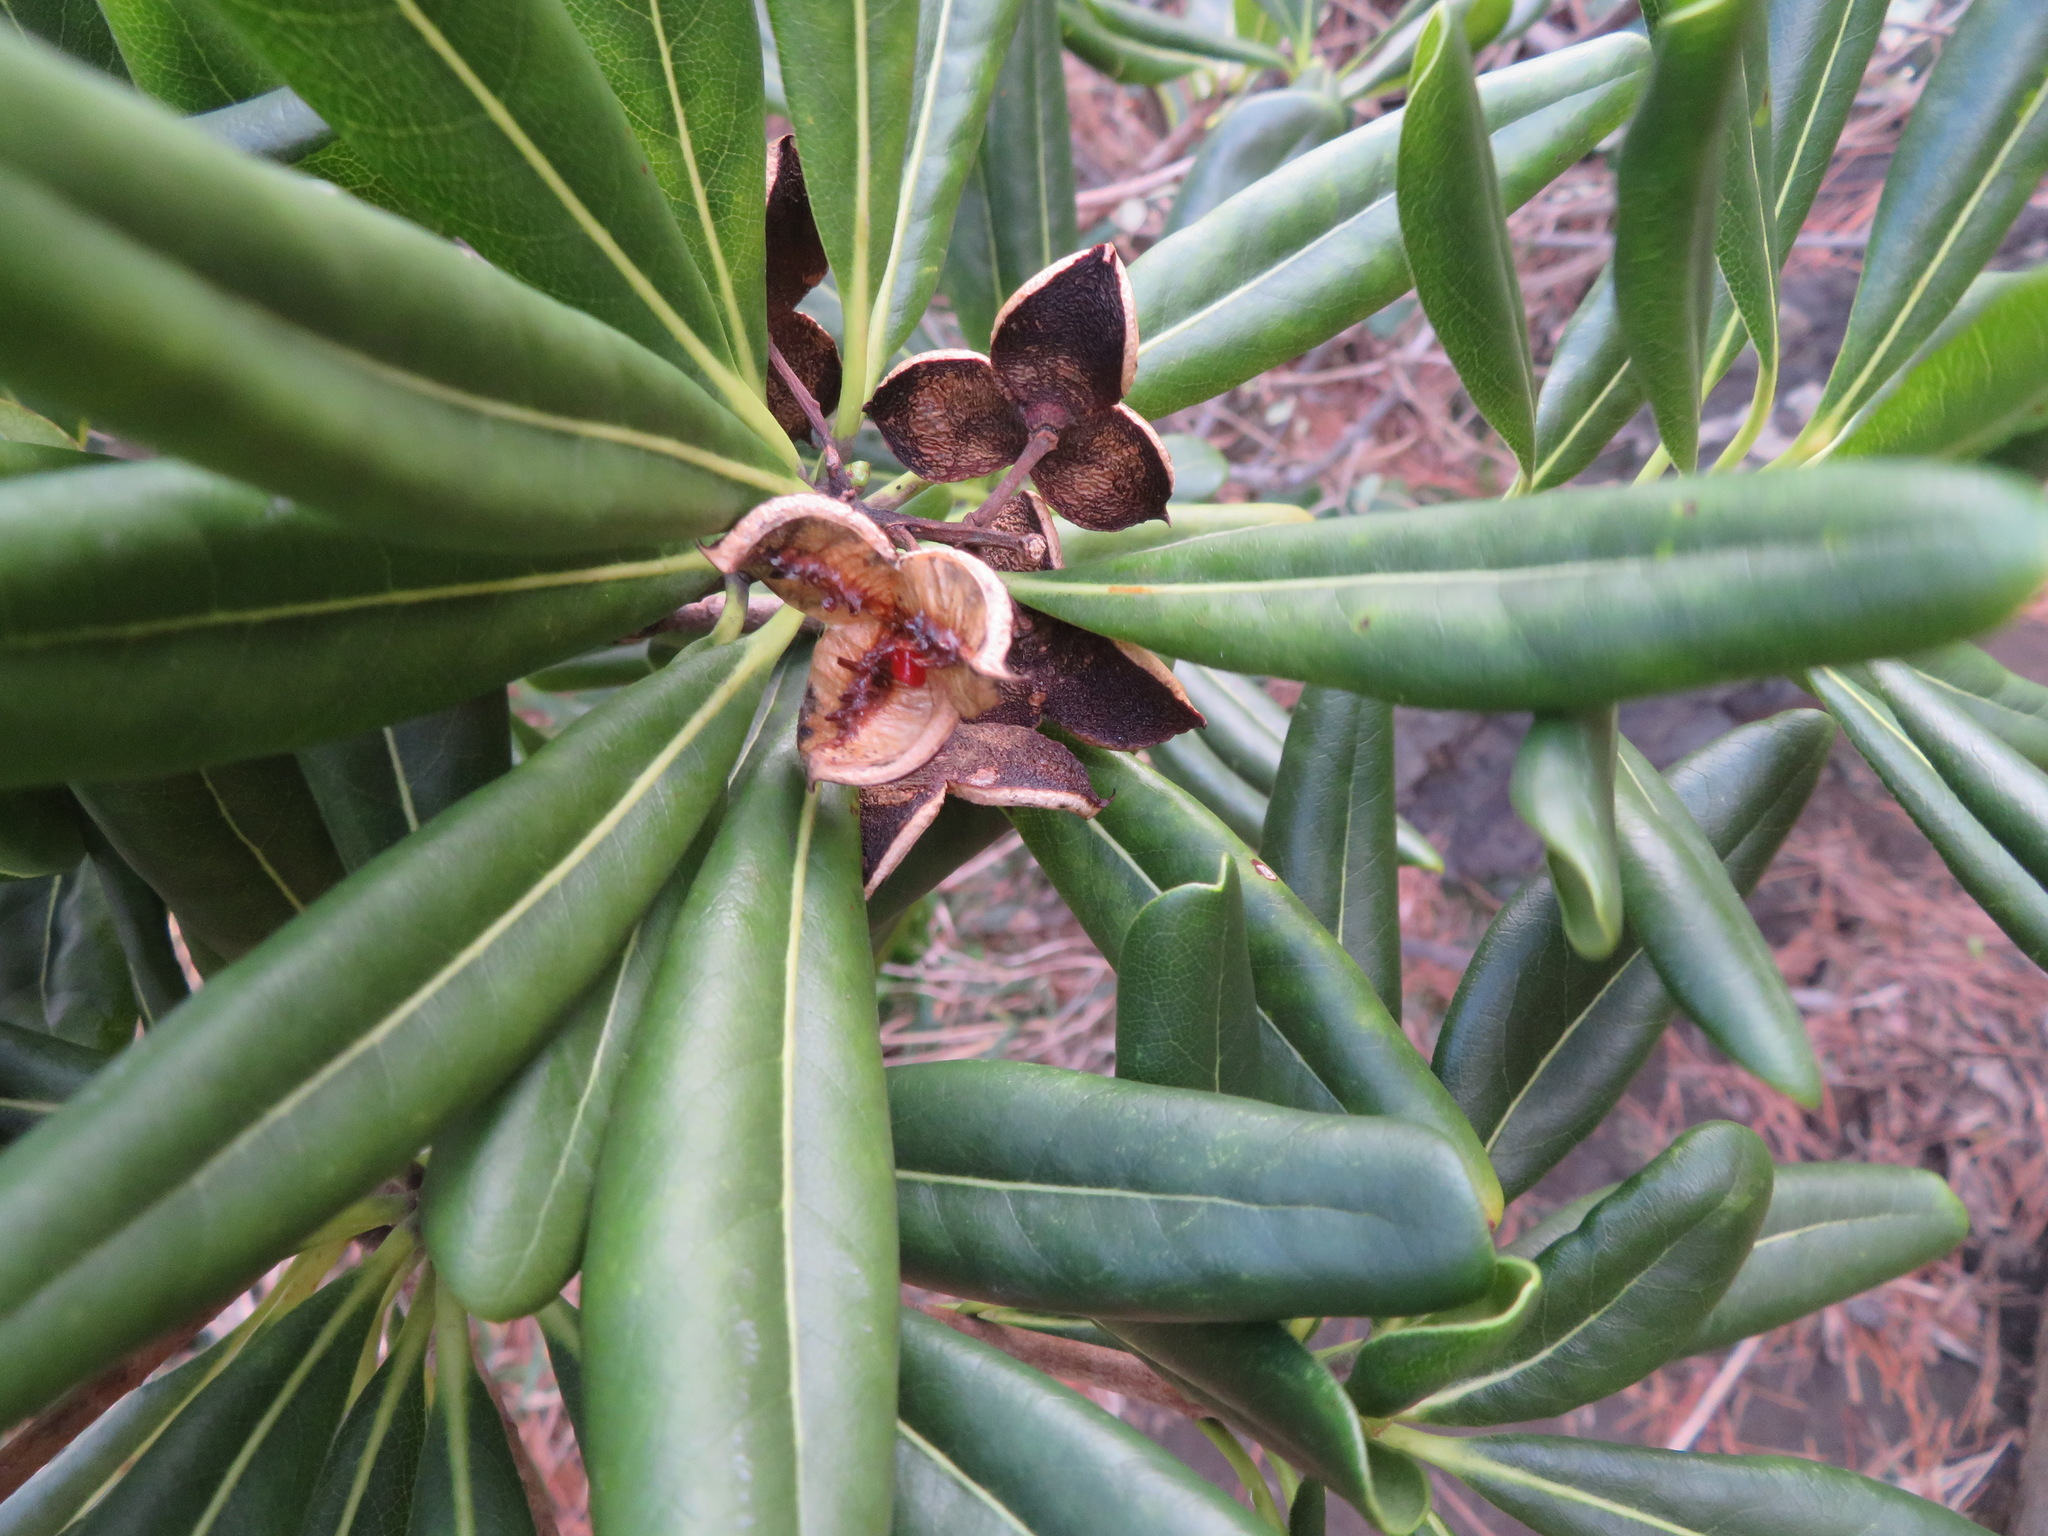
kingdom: Plantae
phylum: Tracheophyta
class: Magnoliopsida
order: Apiales
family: Pittosporaceae
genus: Pittosporum
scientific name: Pittosporum tobira
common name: Japanese cheesewood
